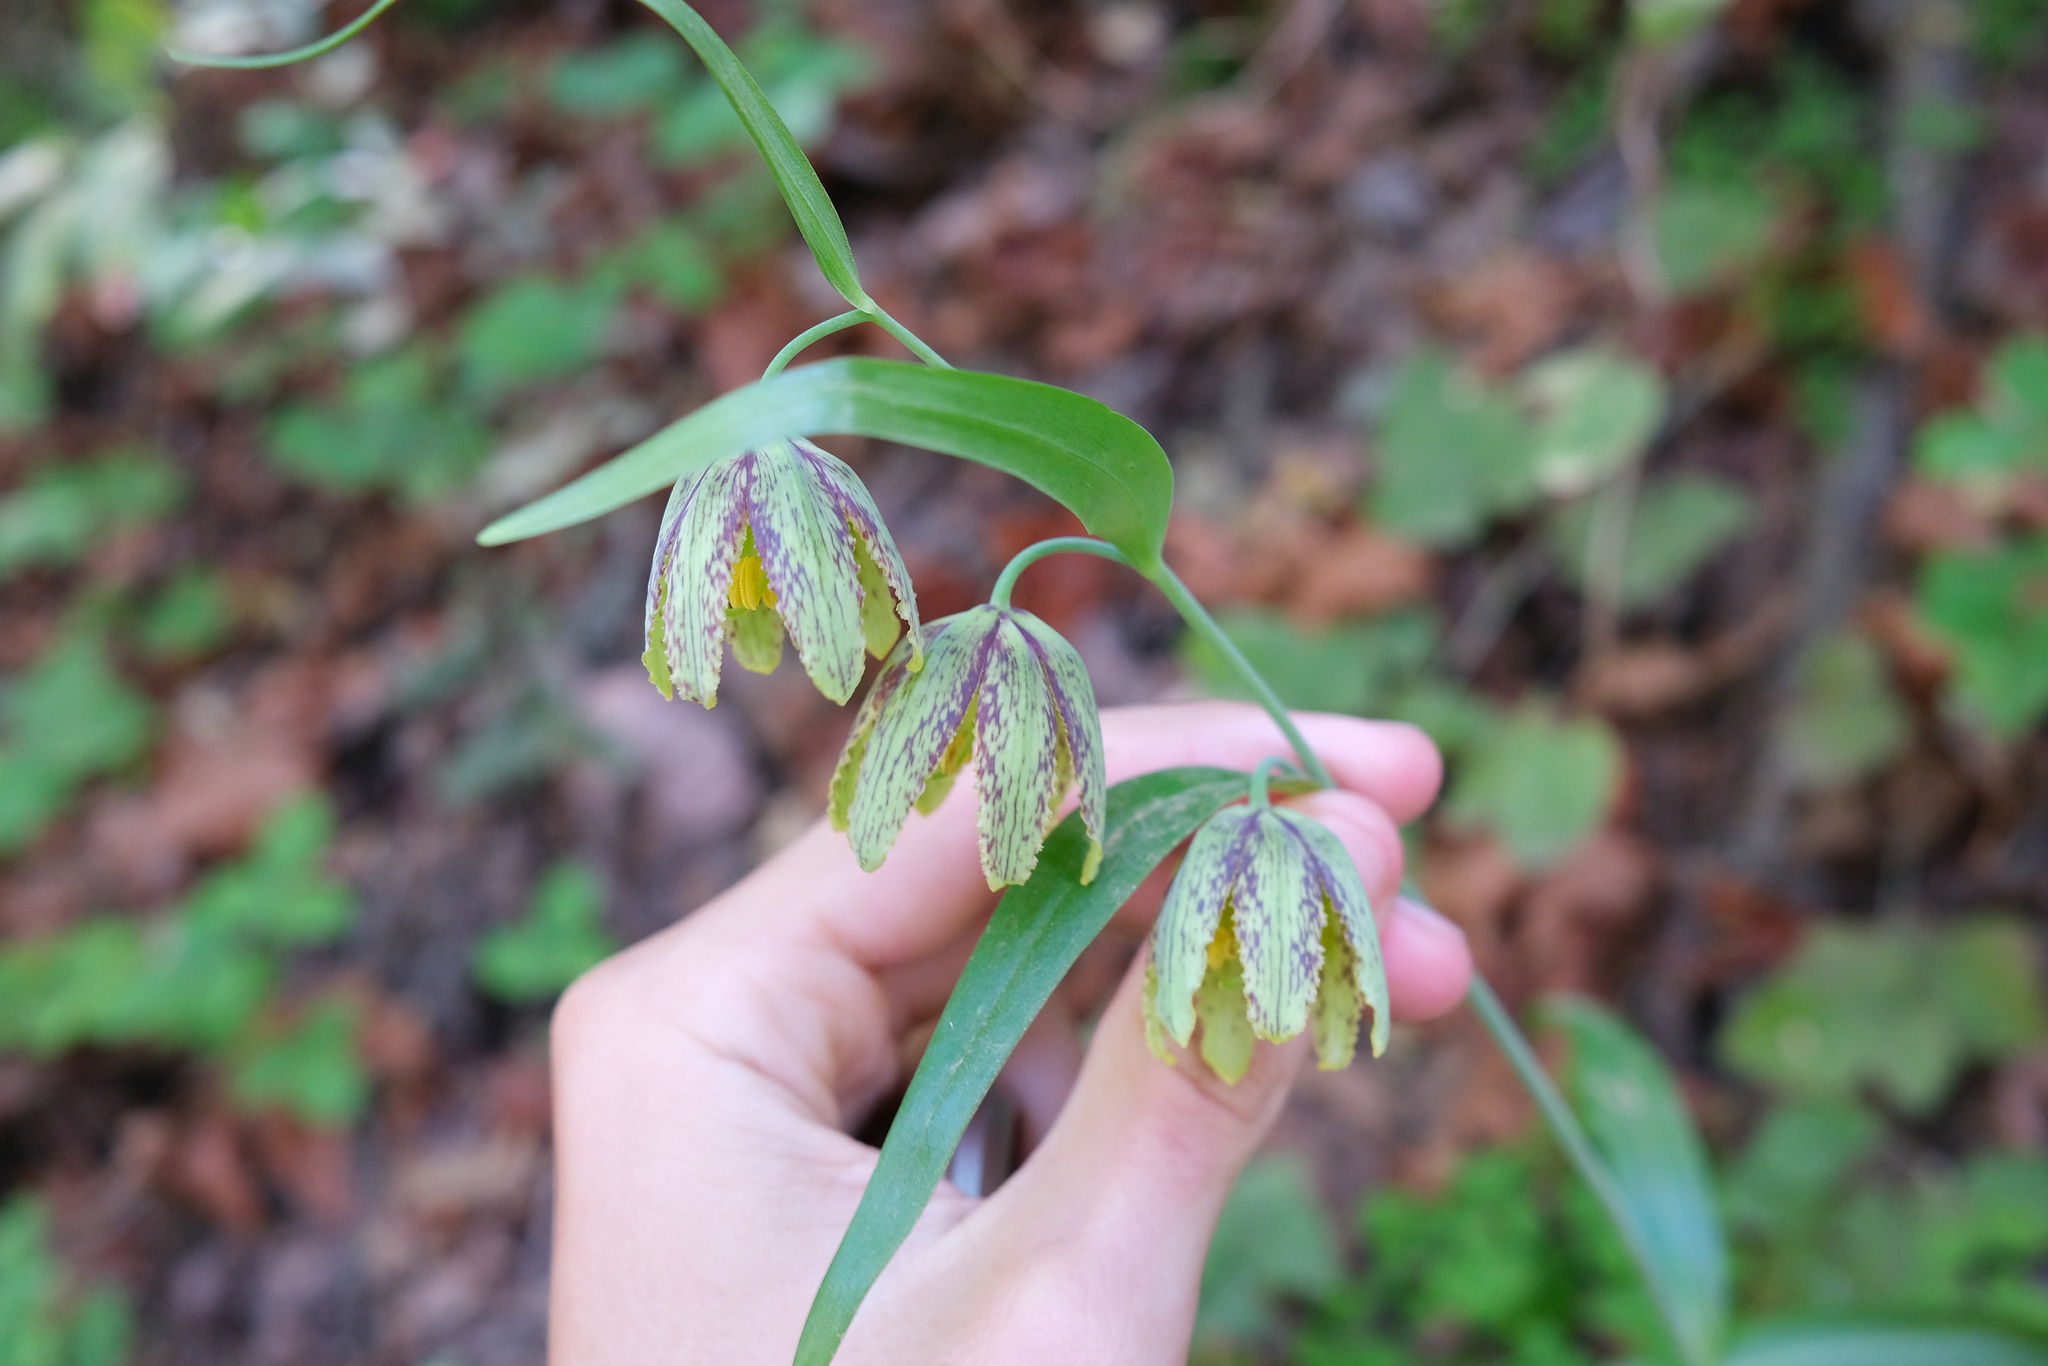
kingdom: Plantae
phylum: Tracheophyta
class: Liliopsida
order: Liliales
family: Liliaceae
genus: Fritillaria
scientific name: Fritillaria affinis
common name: Ojai fritillary
